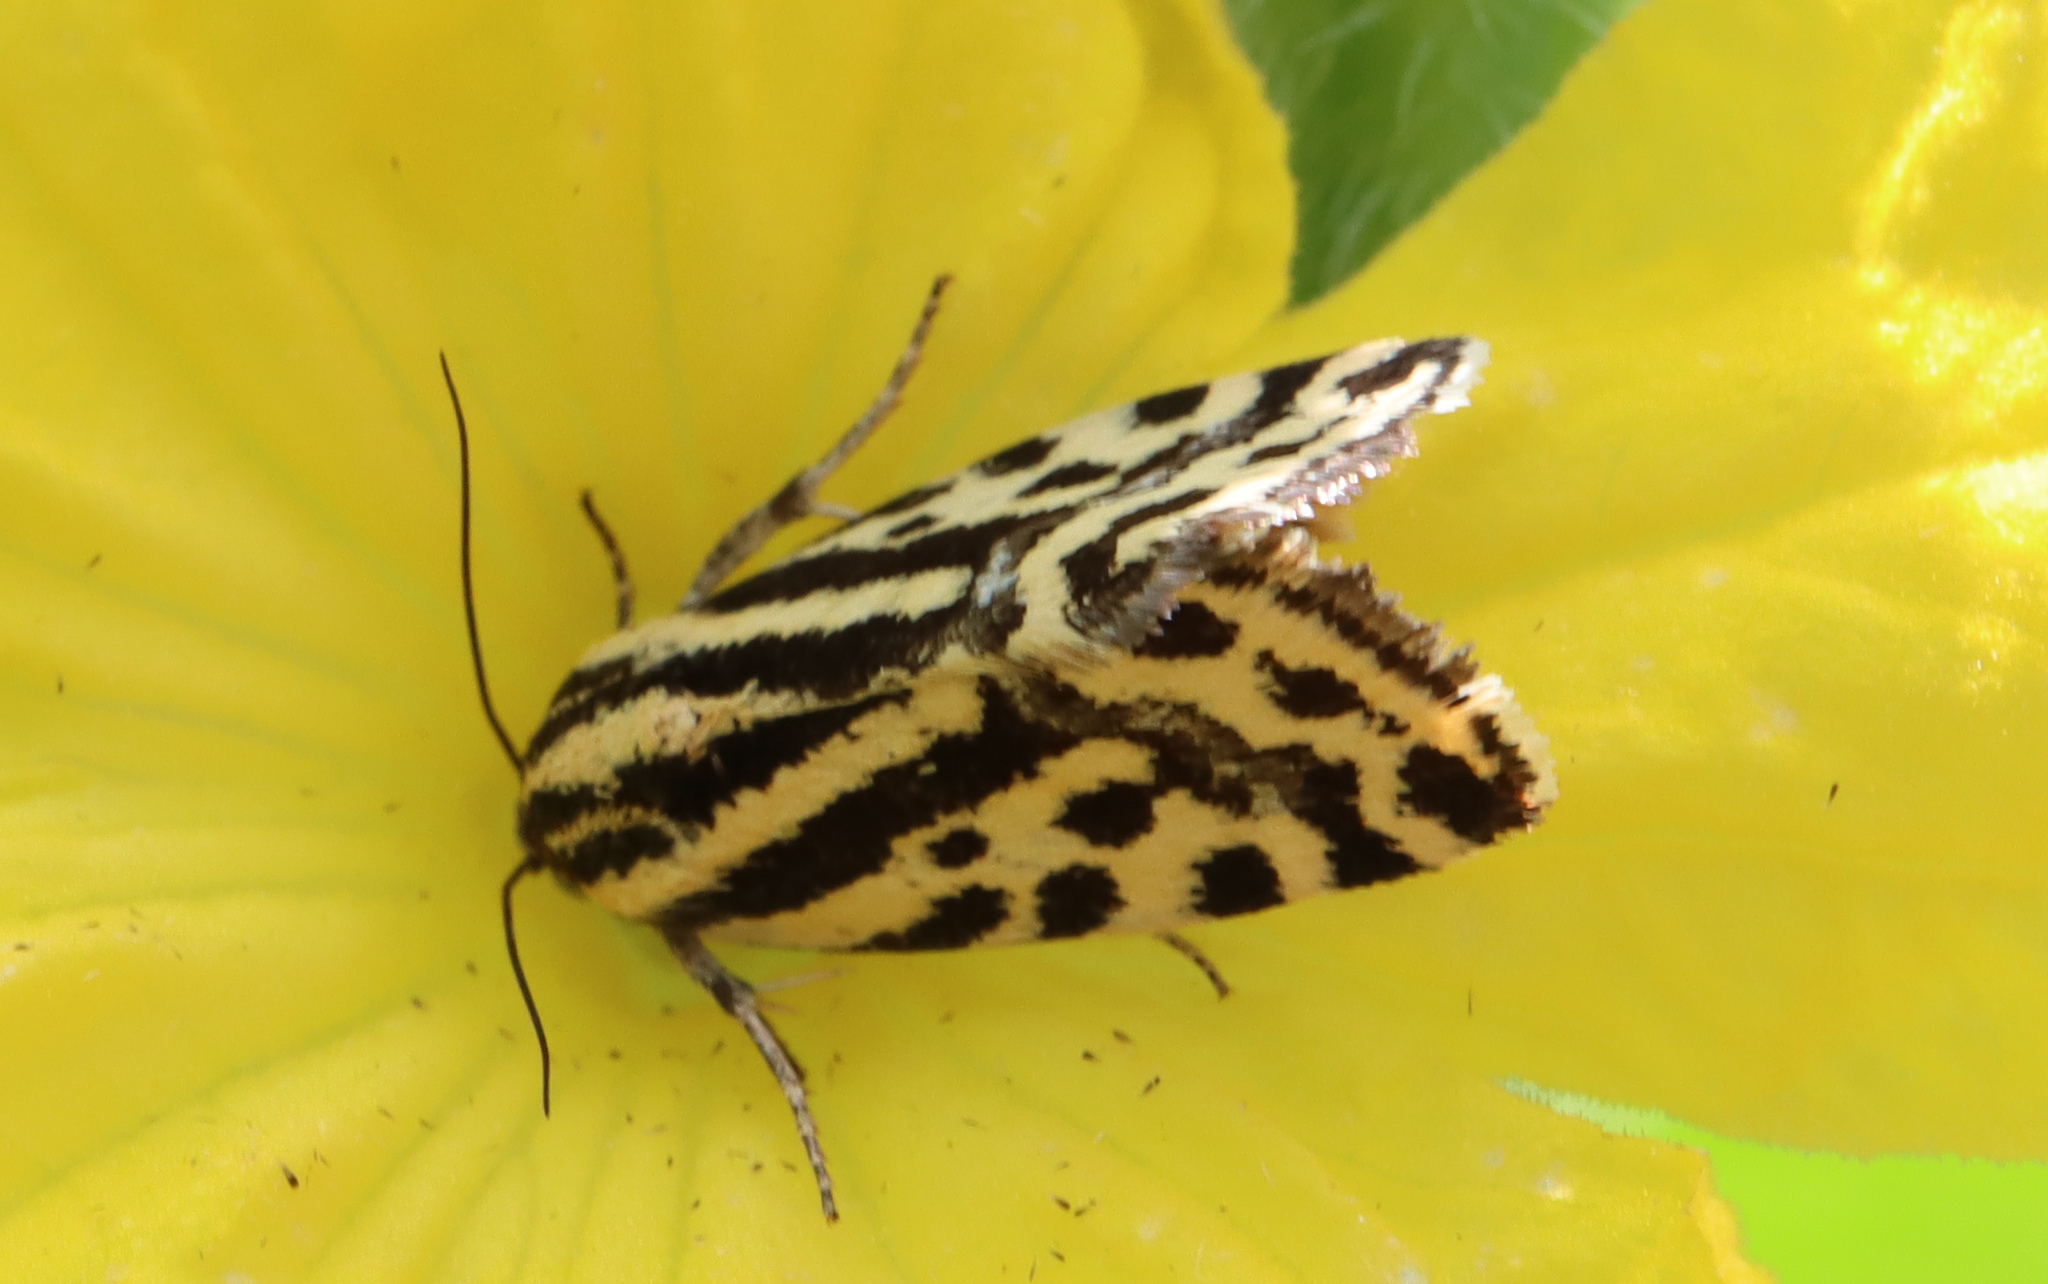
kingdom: Animalia
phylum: Arthropoda
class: Insecta
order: Lepidoptera
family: Noctuidae
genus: Acontia
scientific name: Acontia trabealis
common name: Spotted sulphur
